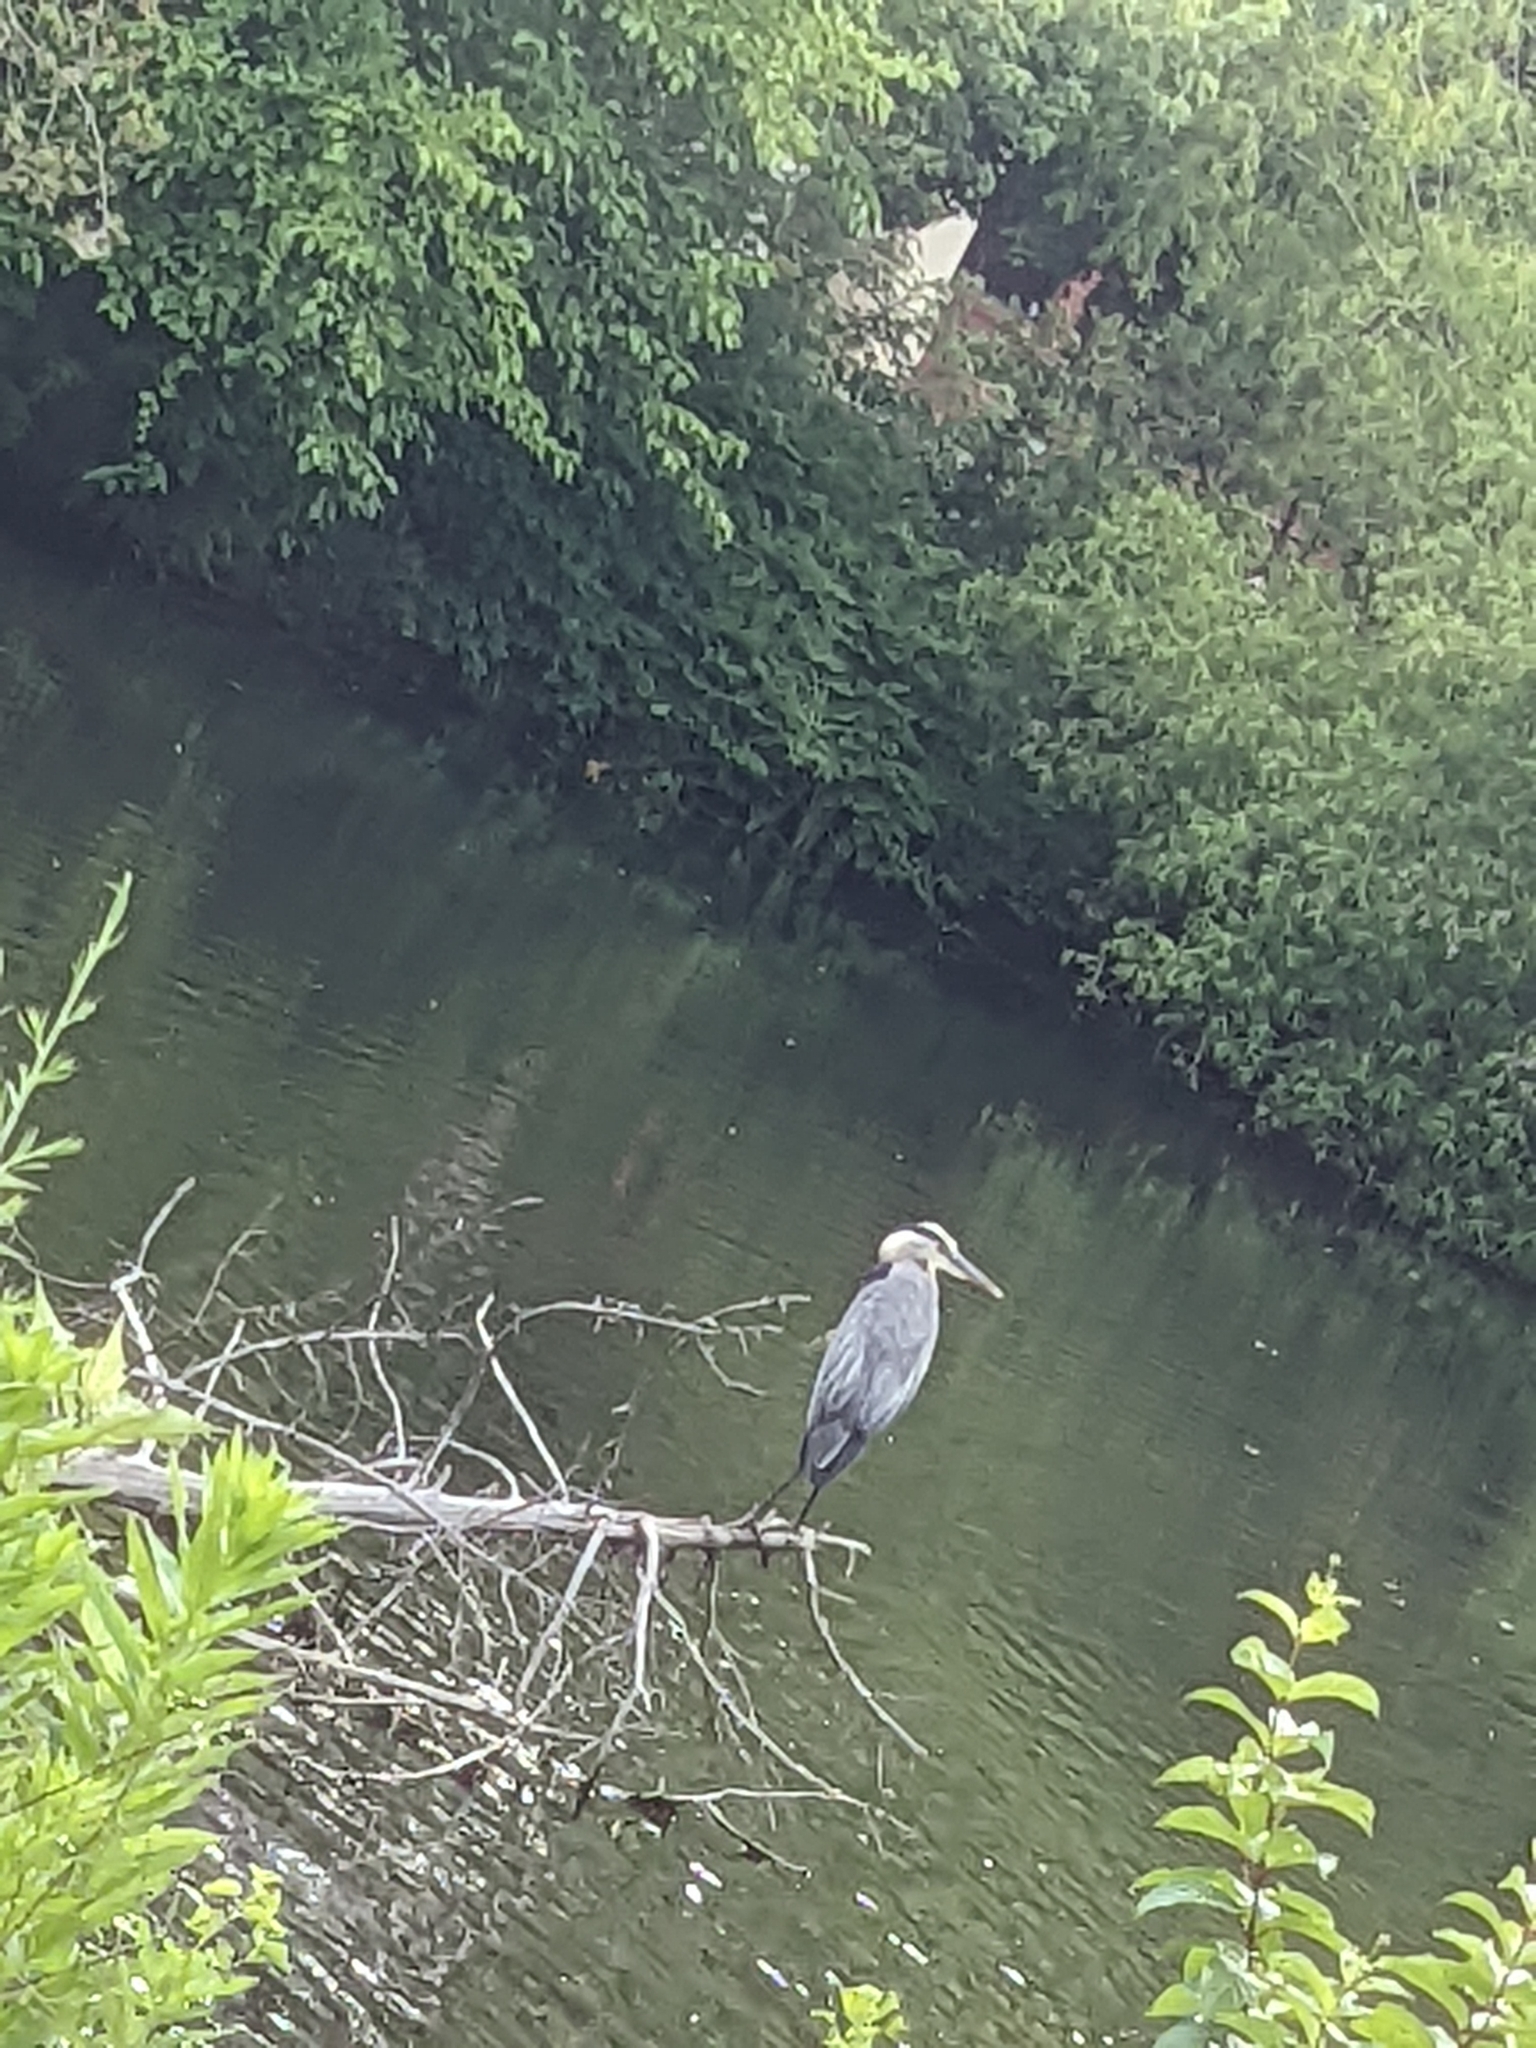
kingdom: Animalia
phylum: Chordata
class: Aves
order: Pelecaniformes
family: Ardeidae
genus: Ardea
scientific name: Ardea herodias
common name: Great blue heron
